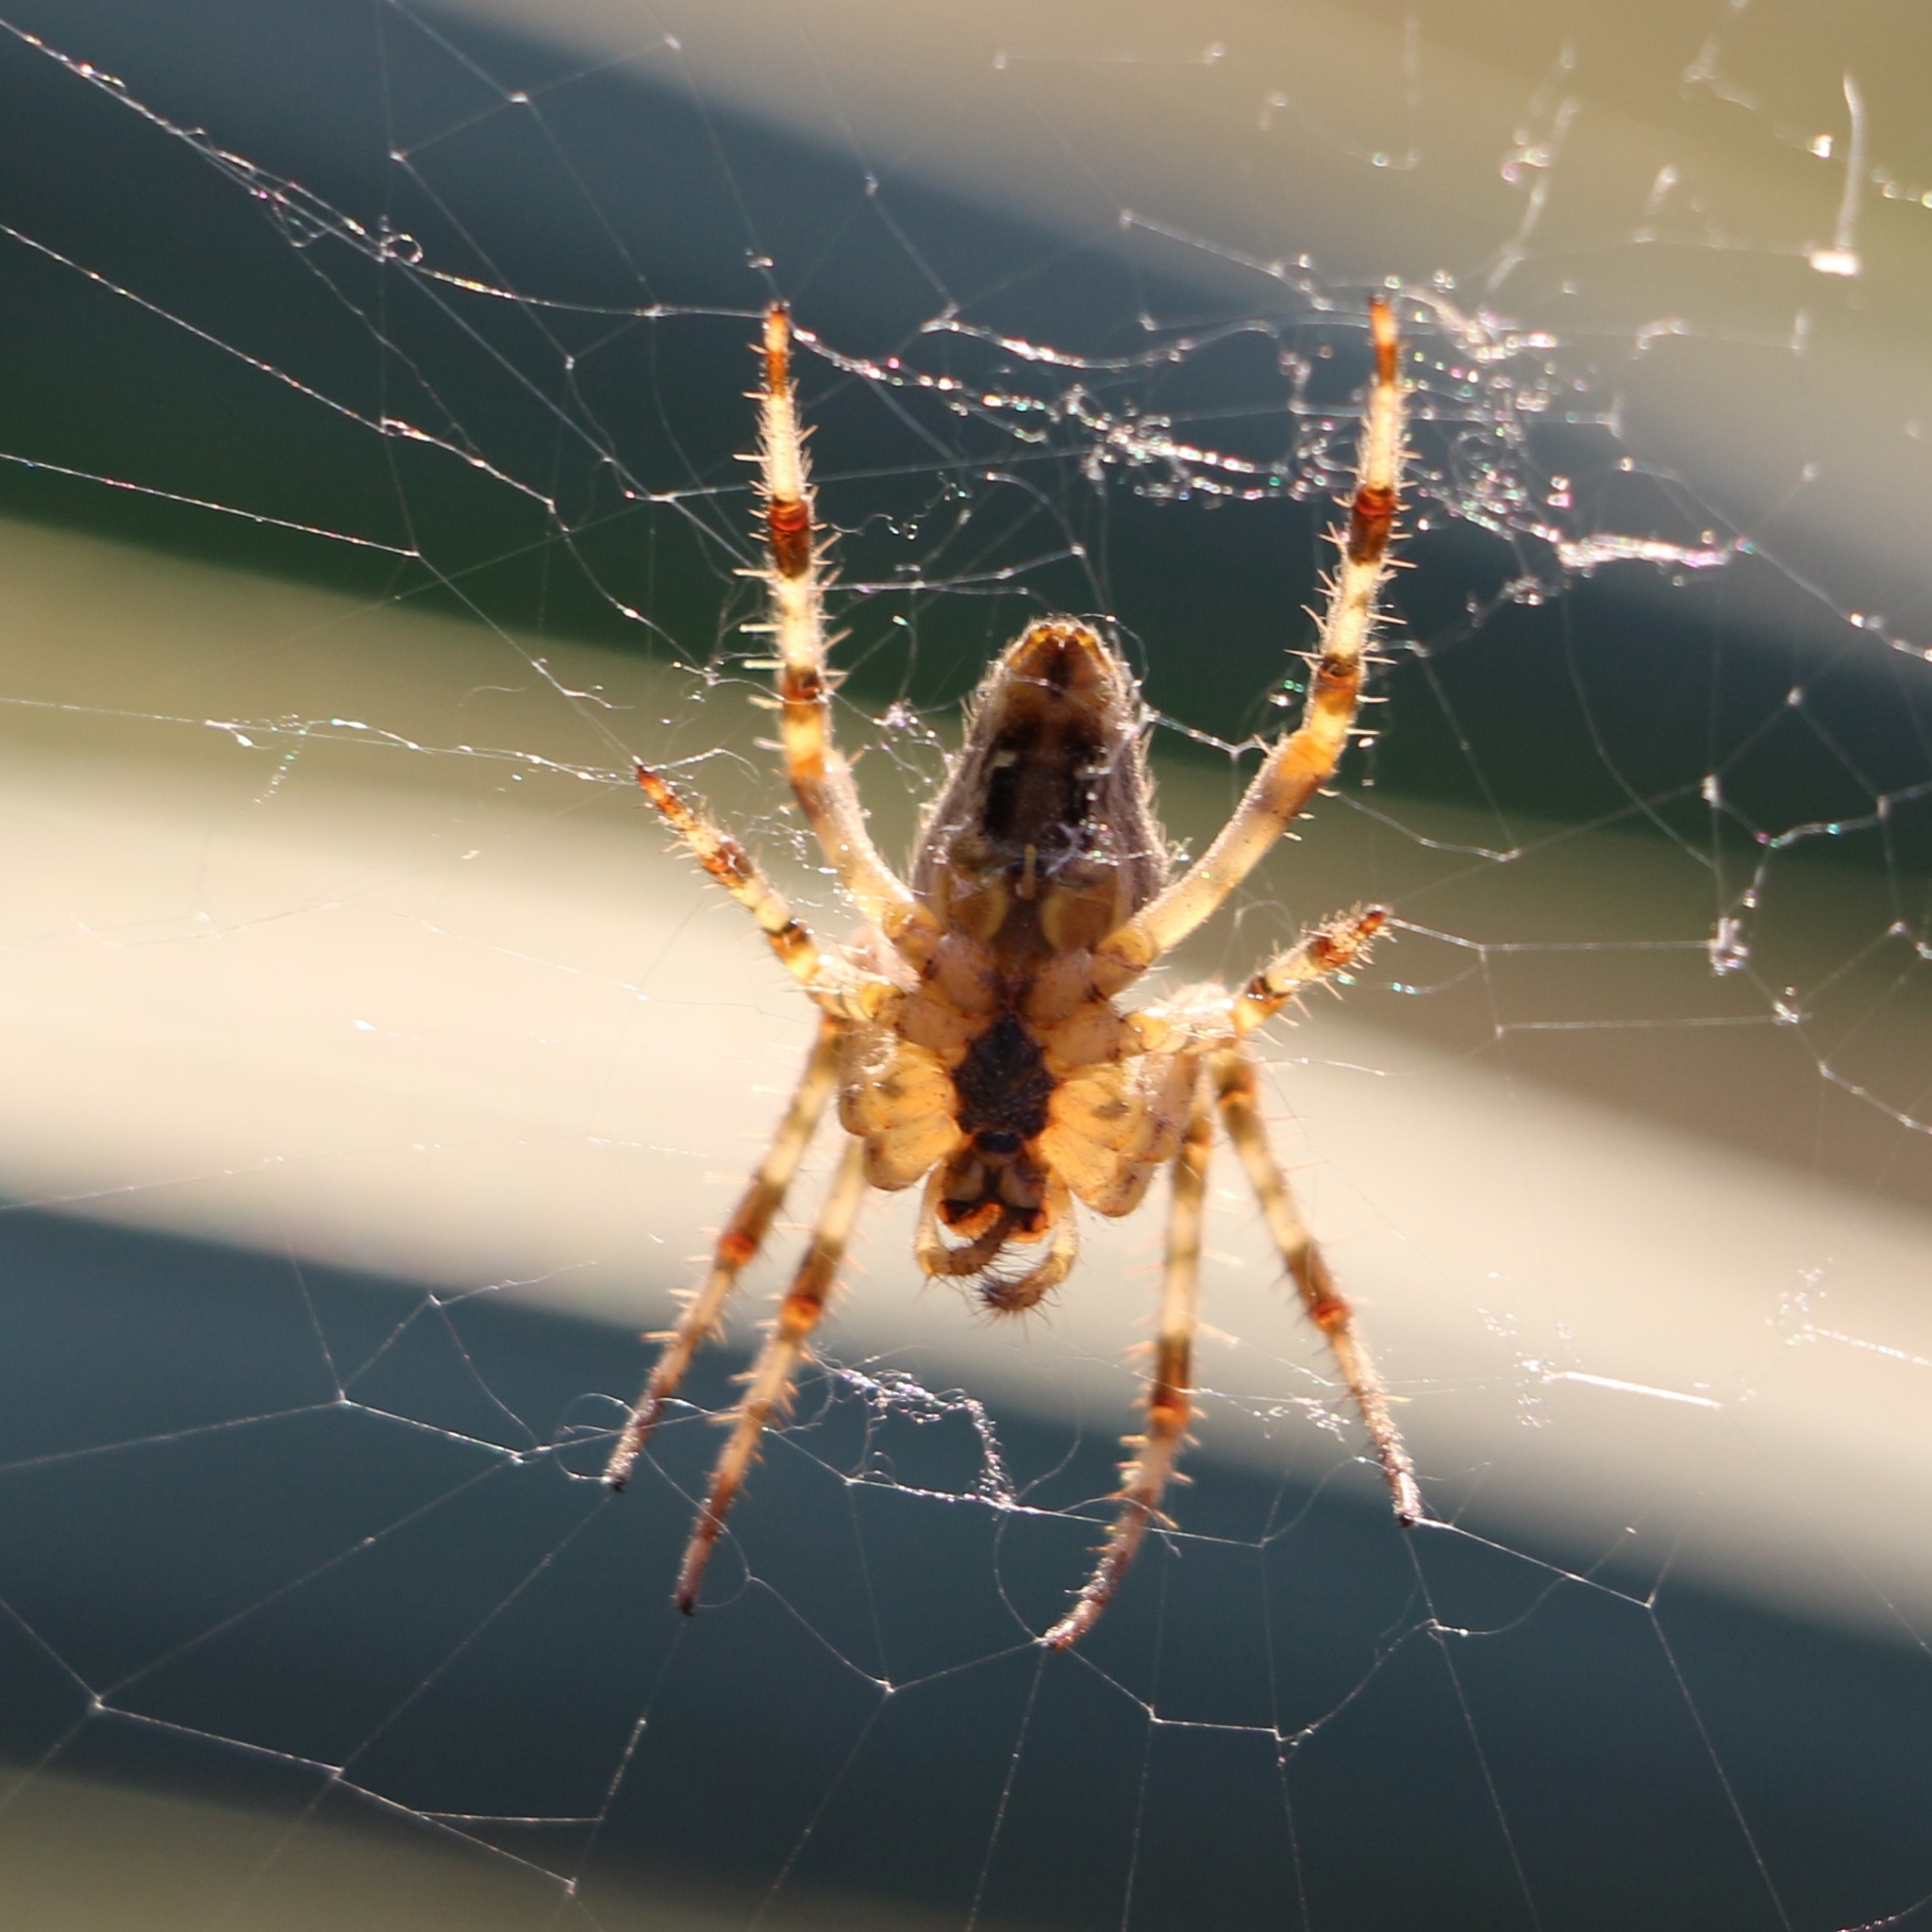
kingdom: Animalia
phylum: Arthropoda
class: Arachnida
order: Araneae
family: Araneidae
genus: Araneus
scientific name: Araneus diadematus
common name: Cross orbweaver
